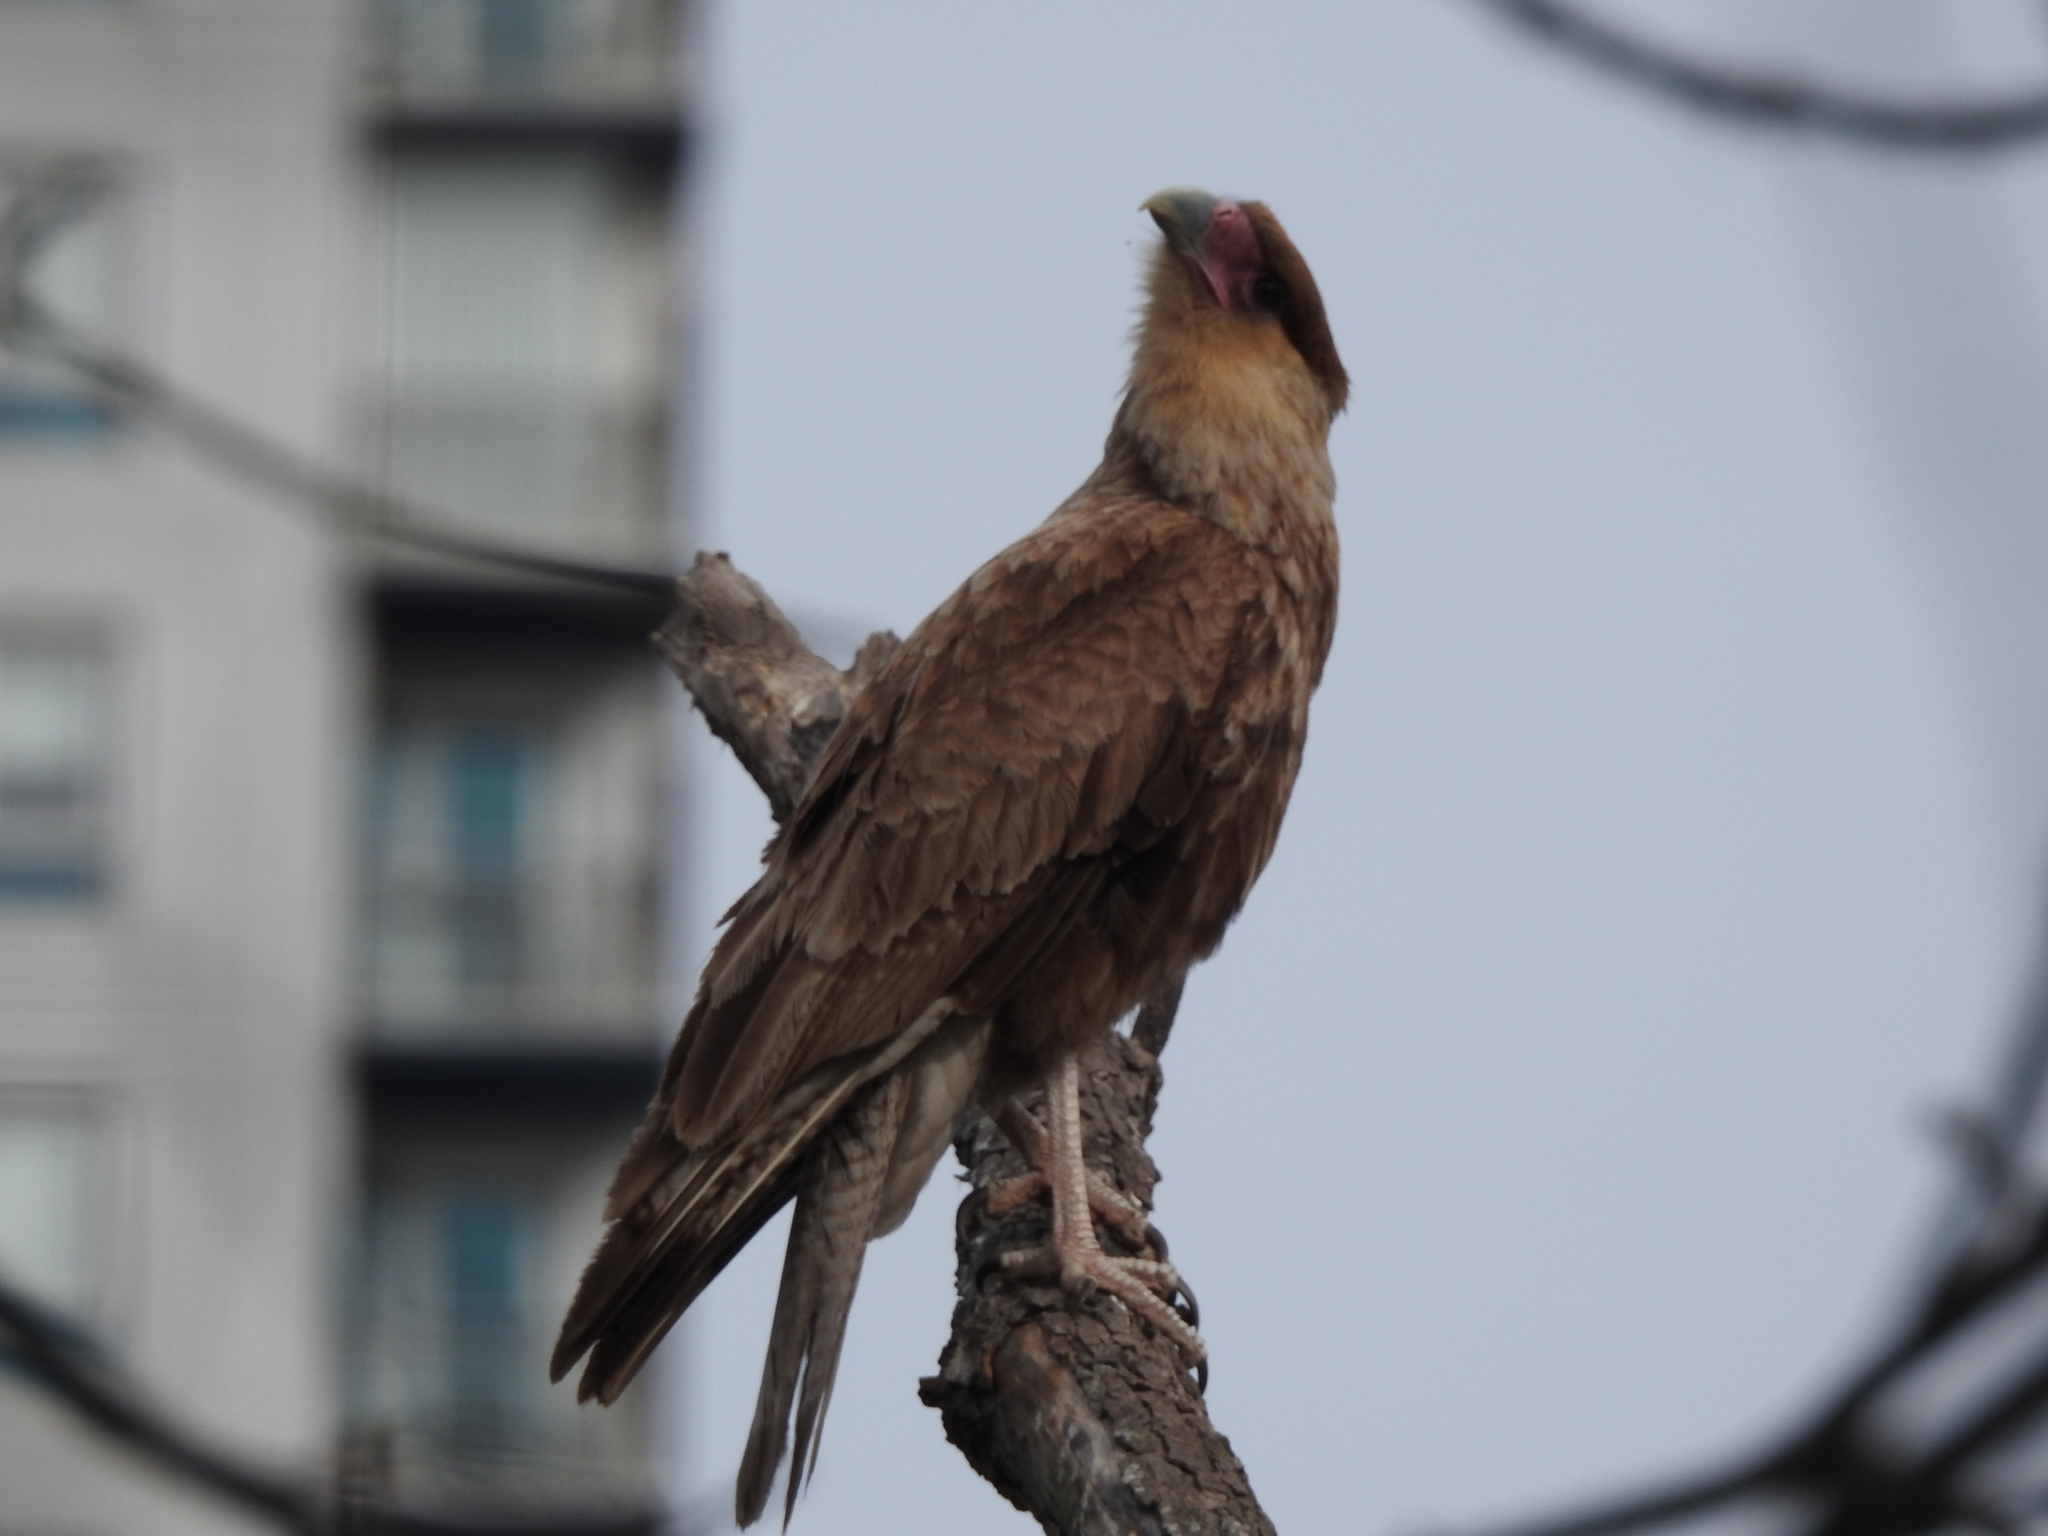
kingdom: Animalia
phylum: Chordata
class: Aves
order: Falconiformes
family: Falconidae
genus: Caracara
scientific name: Caracara plancus
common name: Southern caracara
